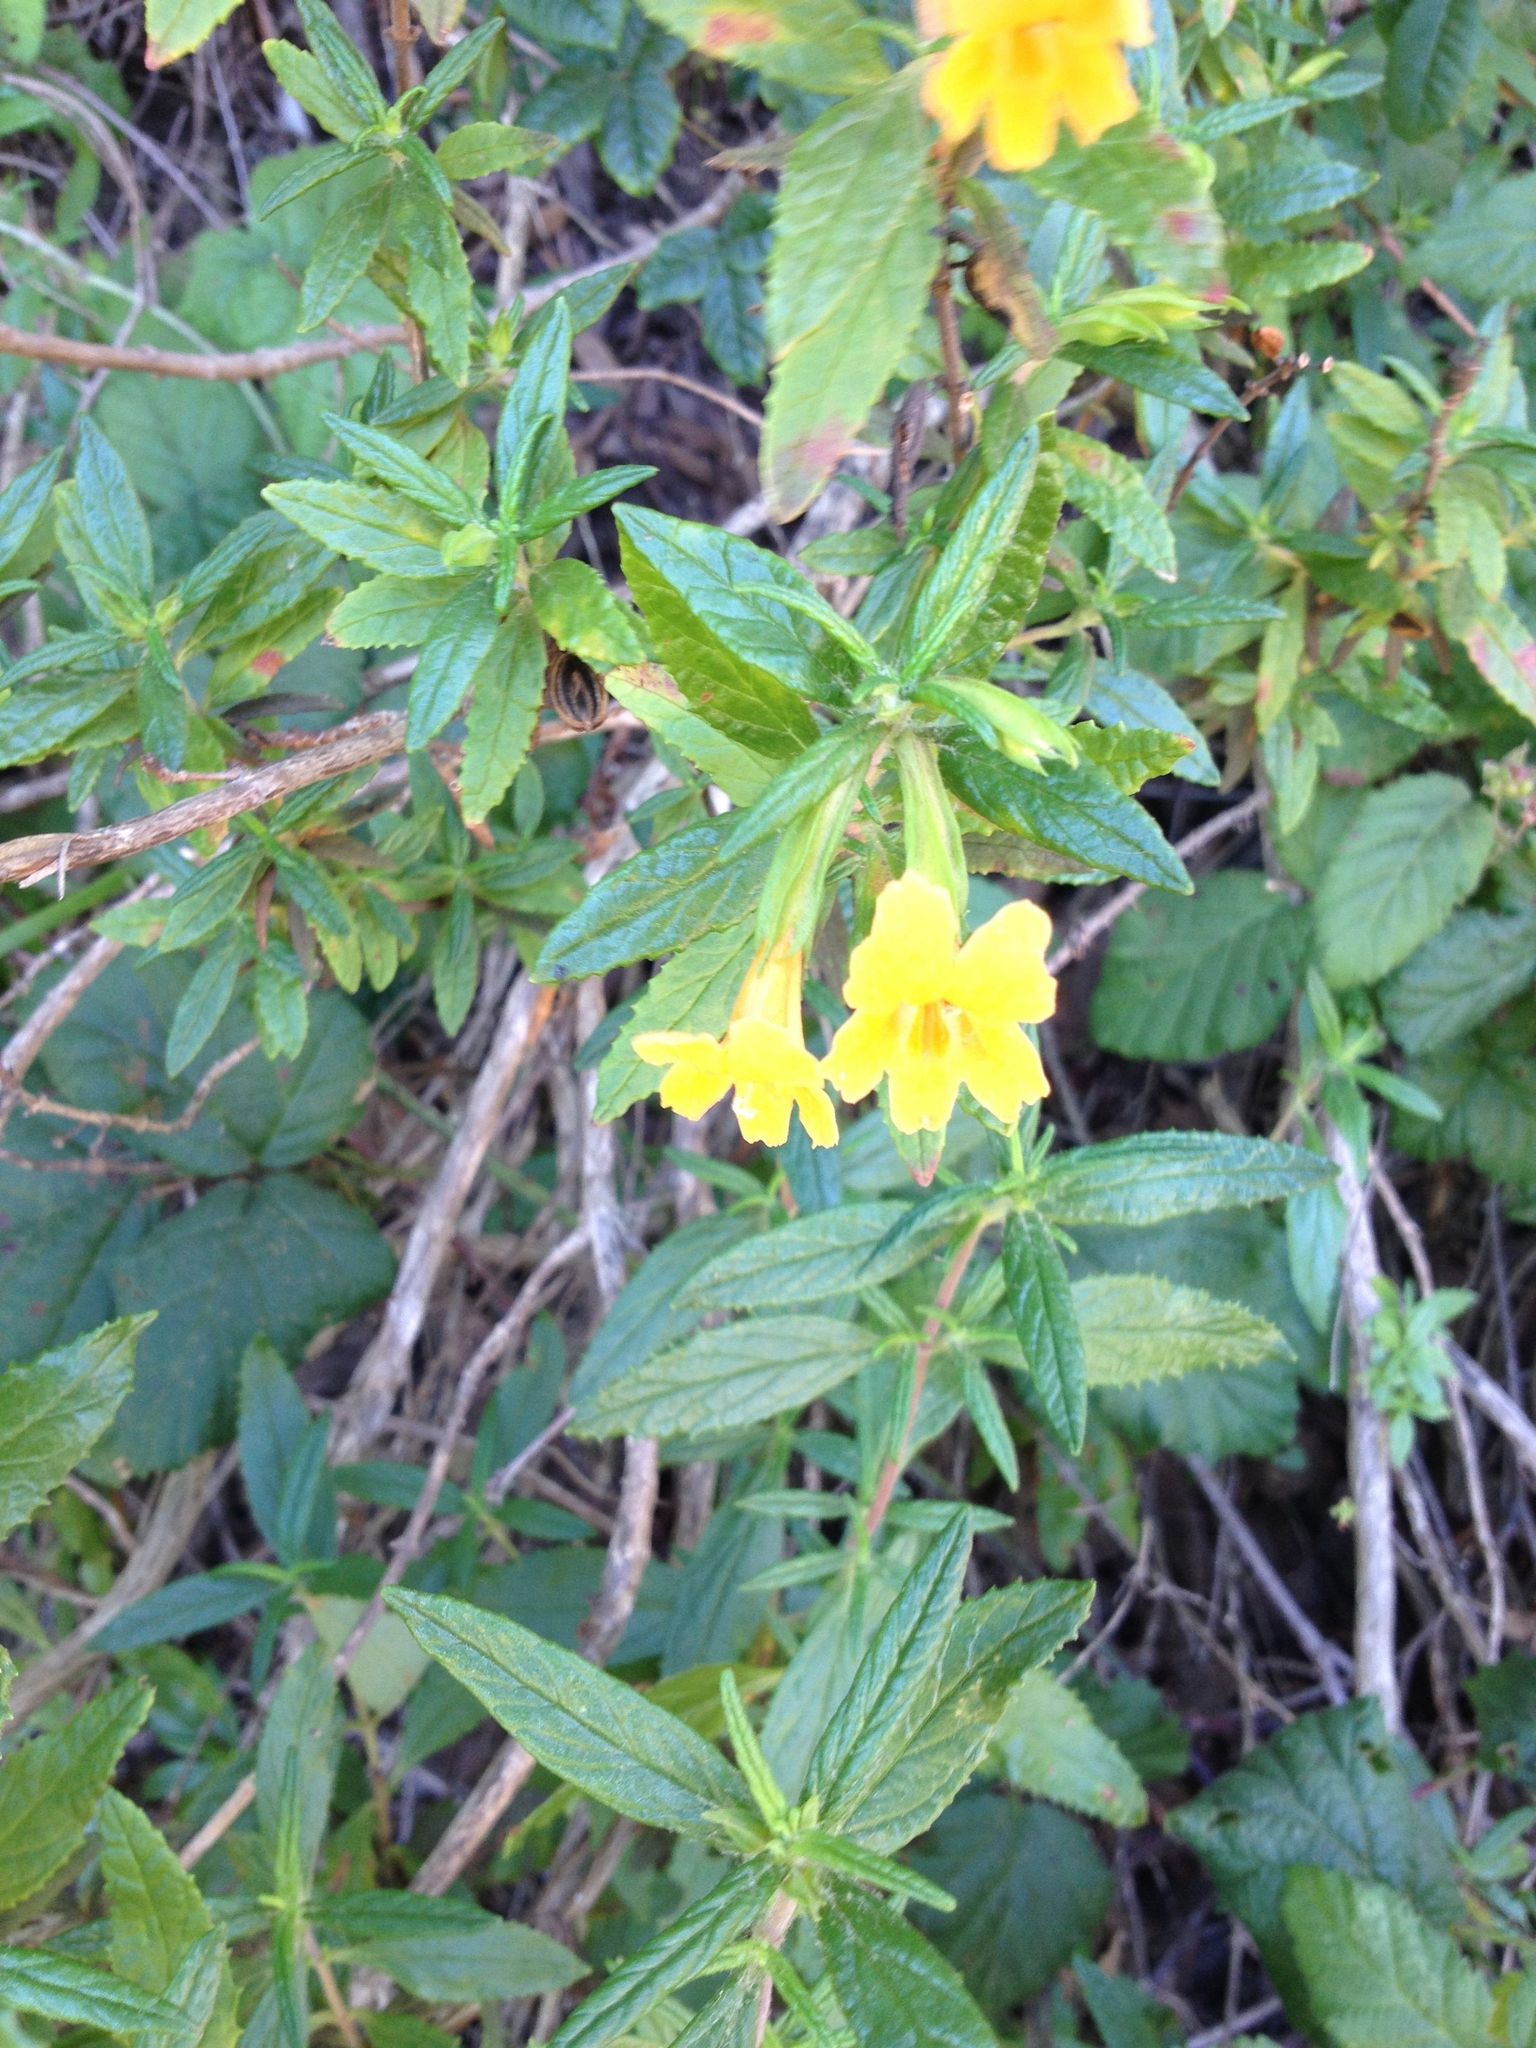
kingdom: Plantae
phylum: Tracheophyta
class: Magnoliopsida
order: Lamiales
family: Phrymaceae
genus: Diplacus
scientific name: Diplacus aurantiacus
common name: Bush monkey-flower
